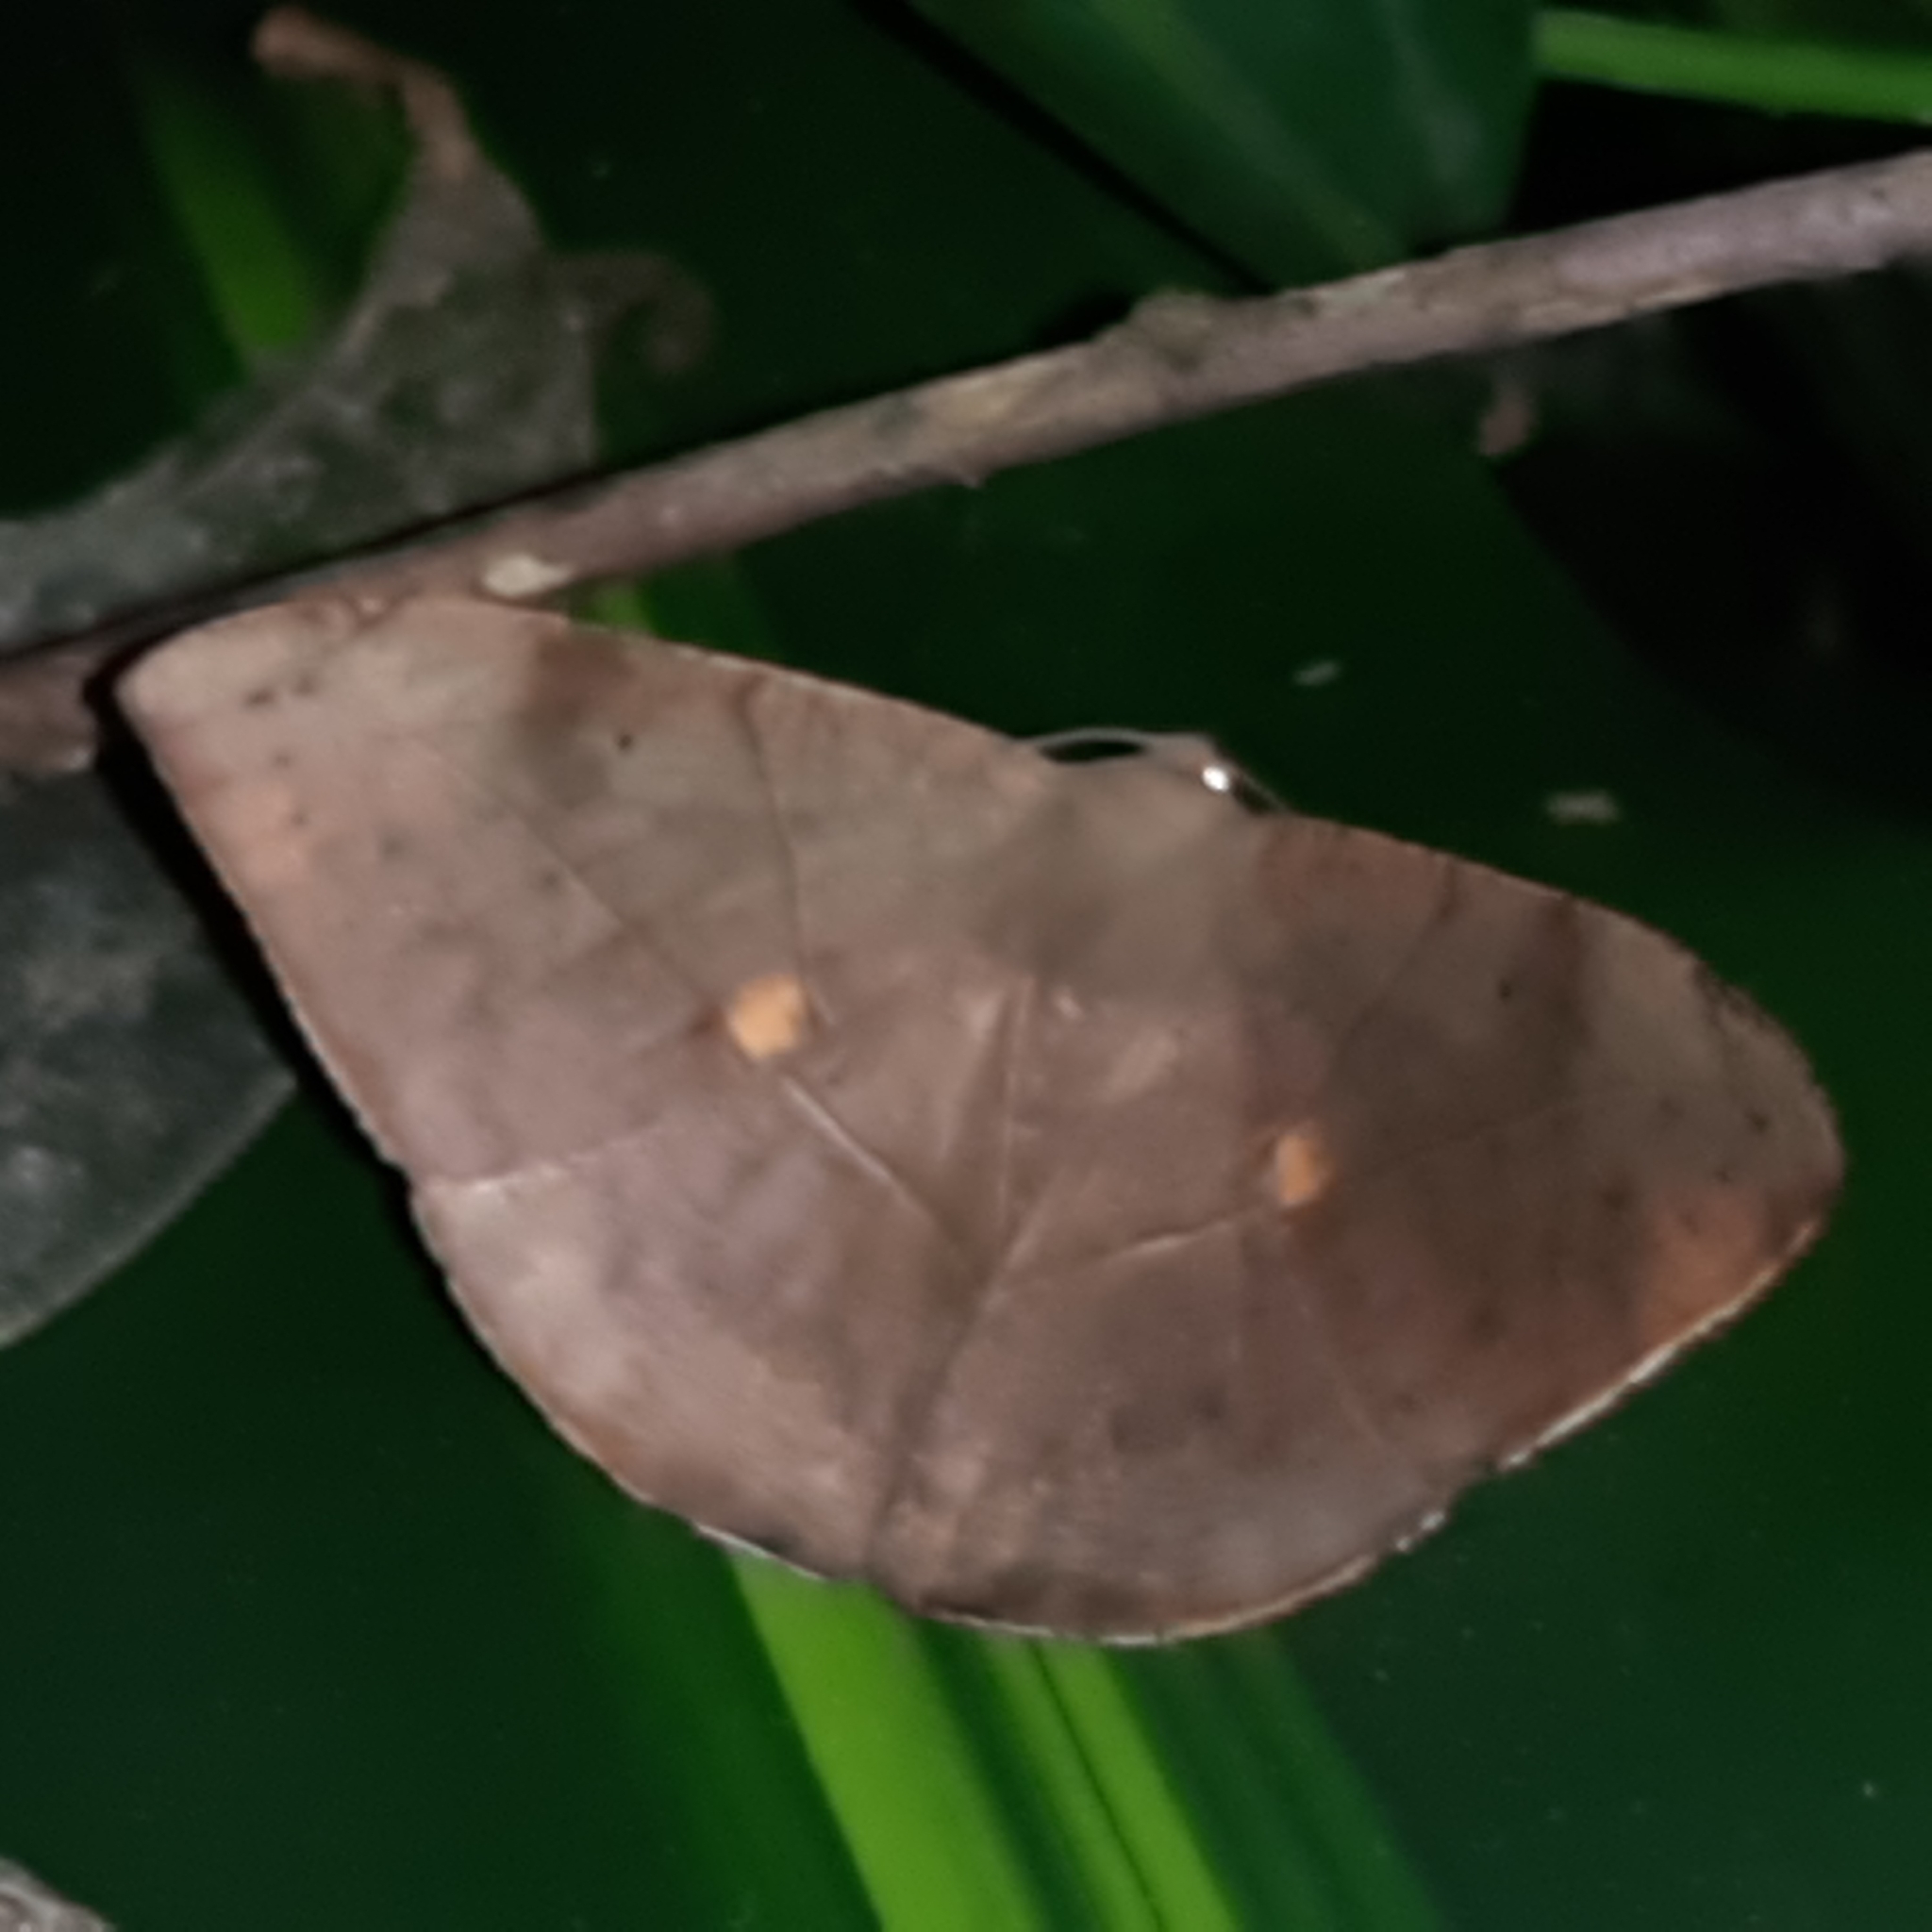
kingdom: Animalia
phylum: Arthropoda
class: Insecta
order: Lepidoptera
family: Geometridae
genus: Oxydia
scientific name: Oxydia trychiata
